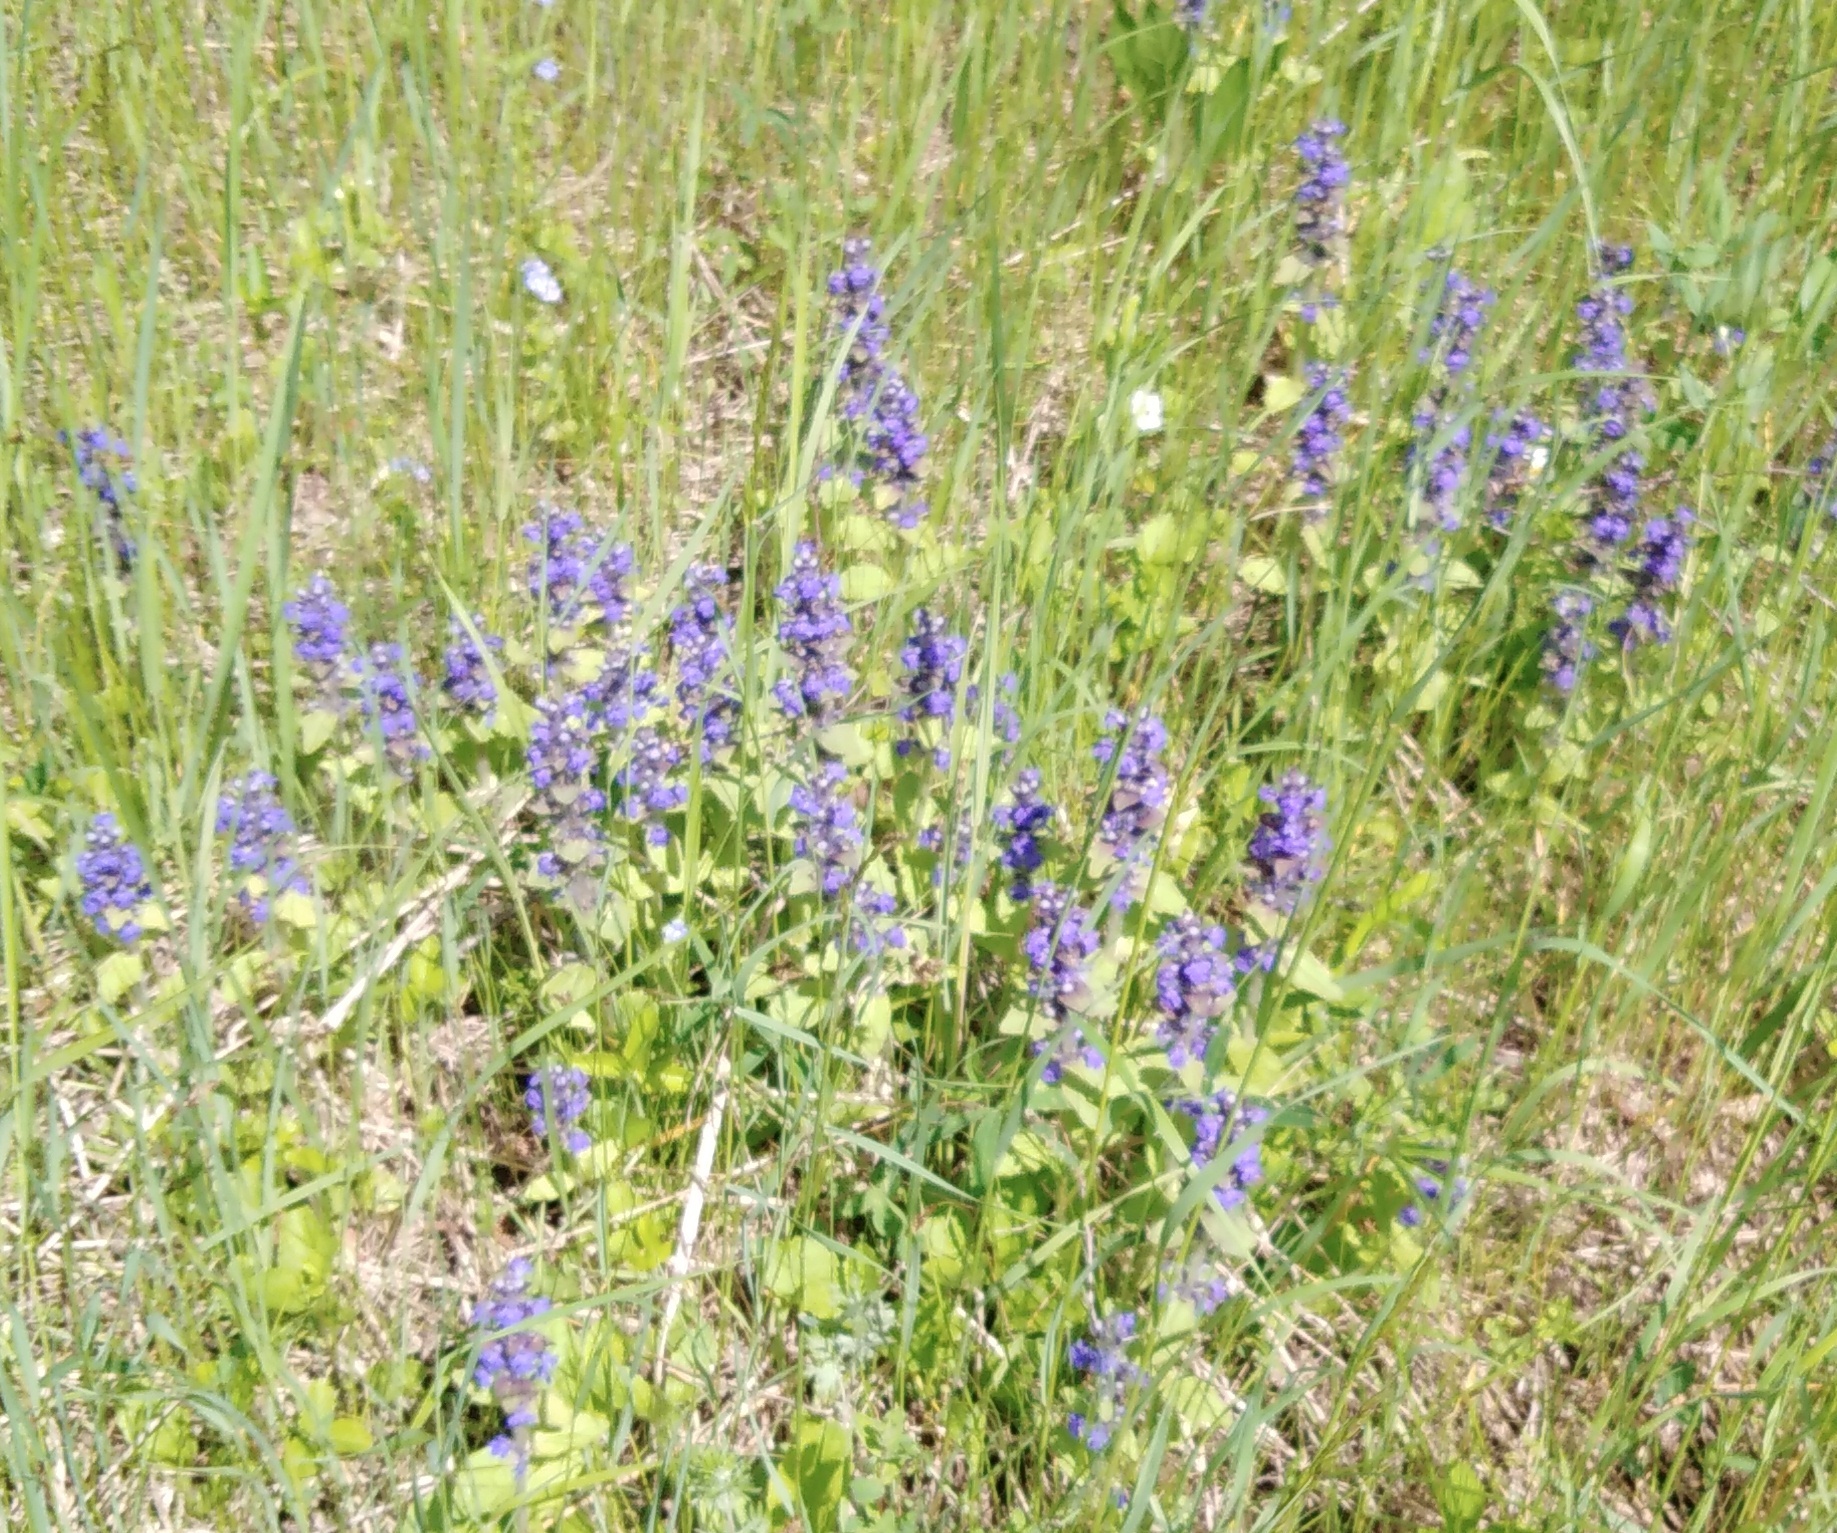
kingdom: Plantae
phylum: Tracheophyta
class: Magnoliopsida
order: Lamiales
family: Lamiaceae
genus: Ajuga
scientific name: Ajuga genevensis
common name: Blue bugle
